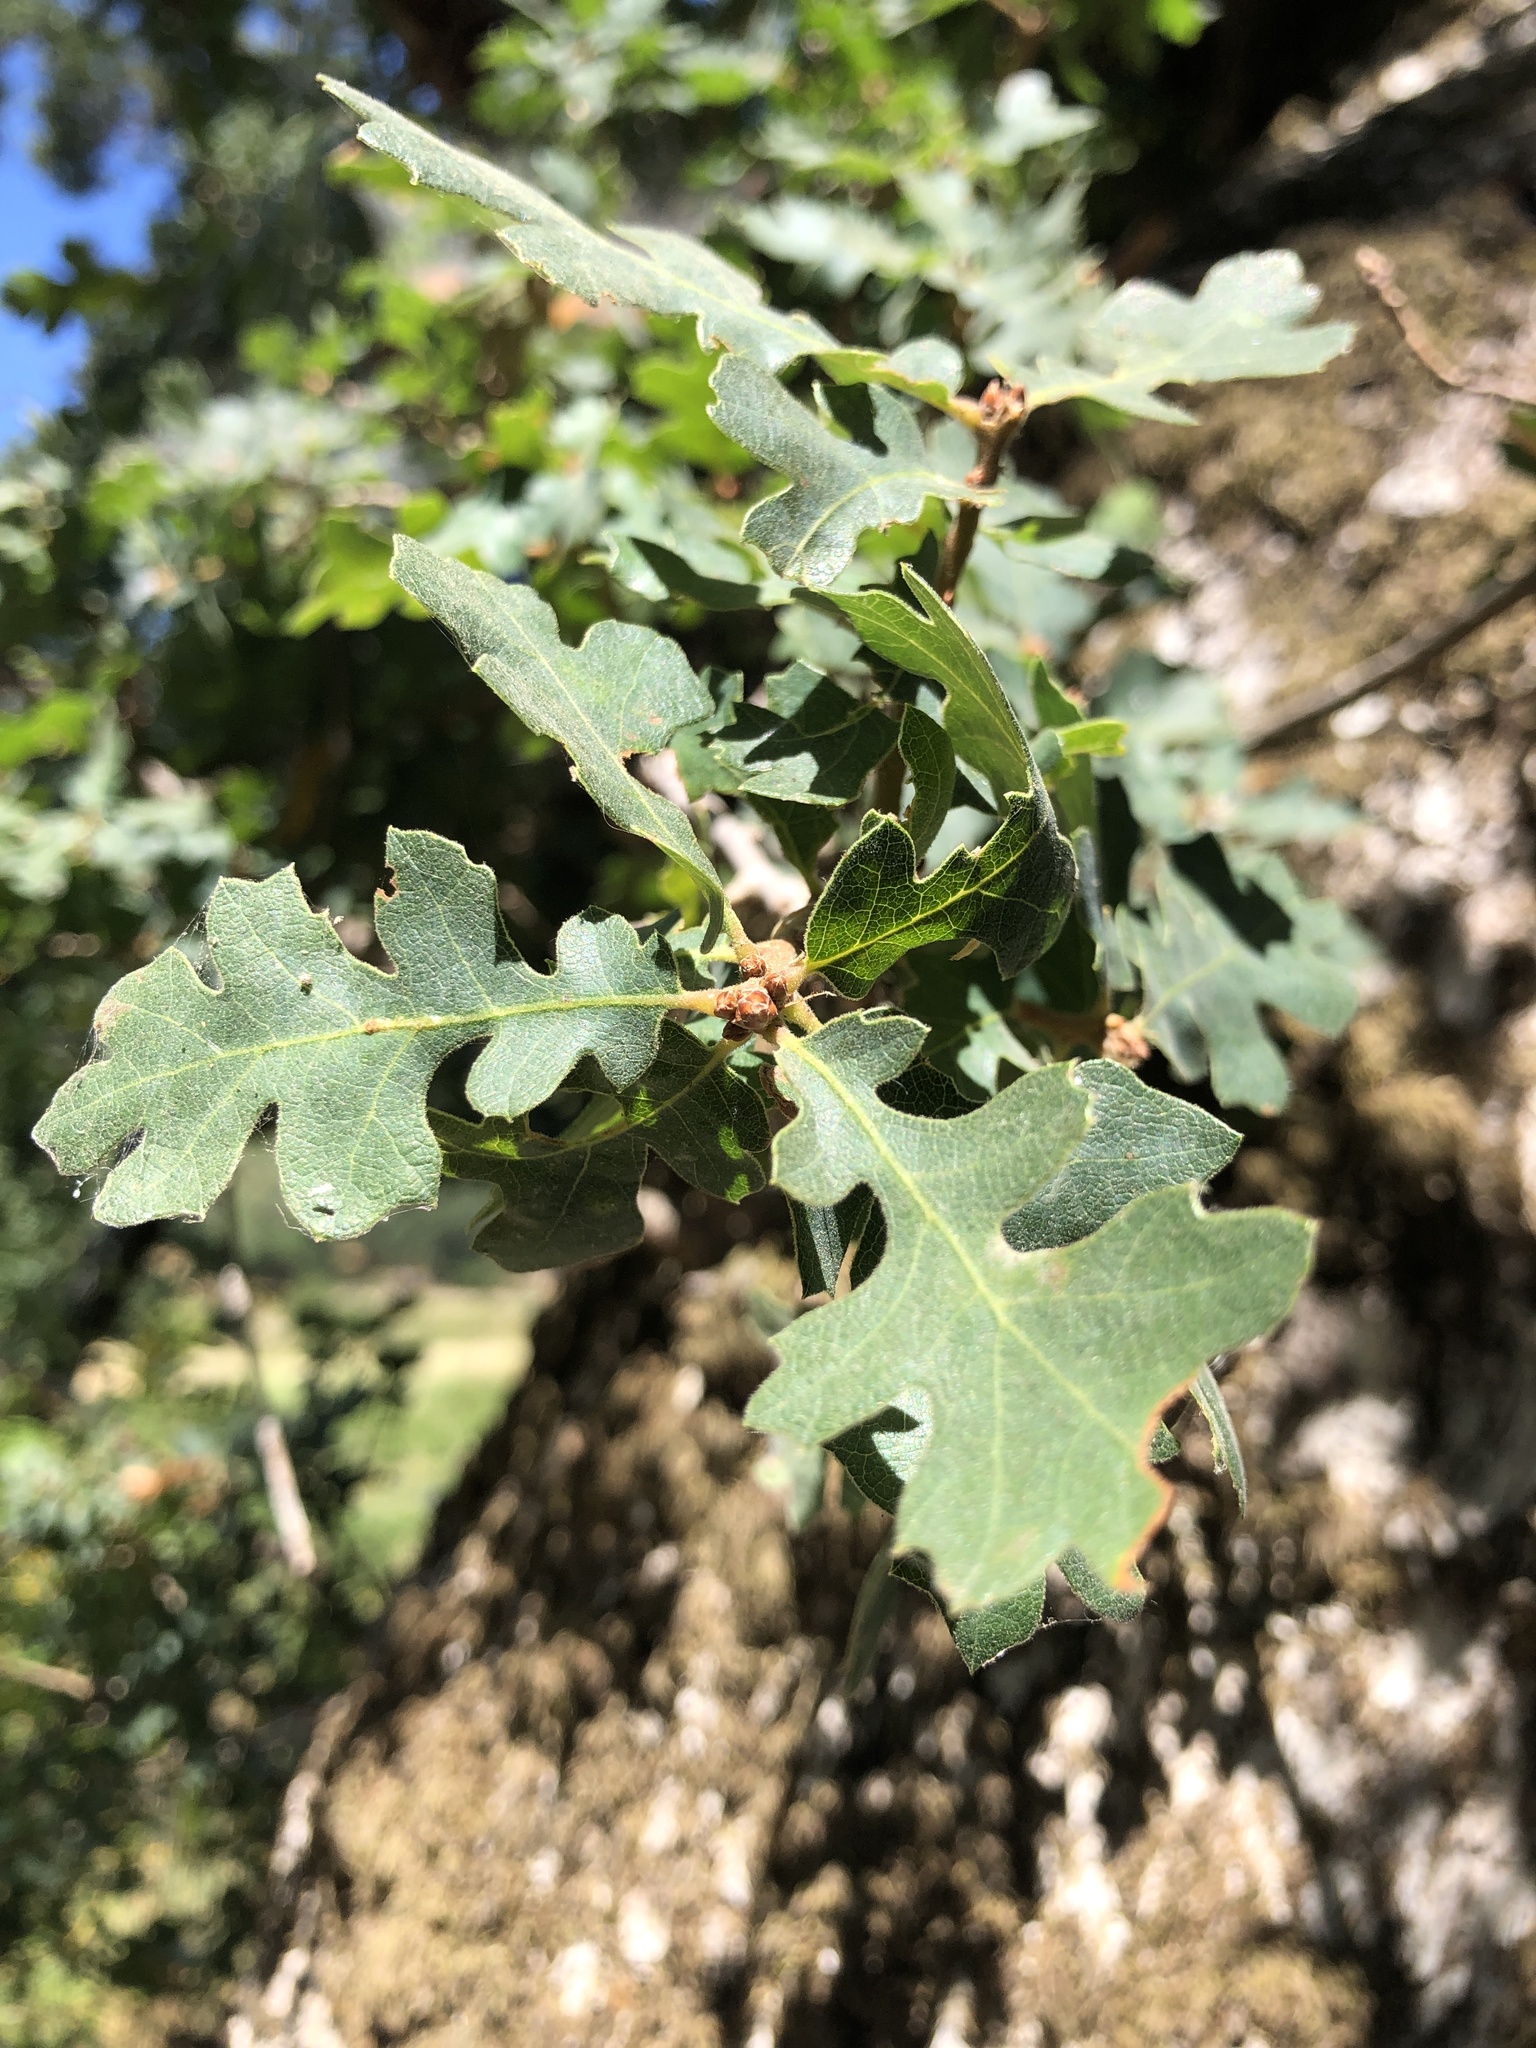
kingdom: Animalia
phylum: Arthropoda
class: Insecta
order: Hymenoptera
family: Cynipidae
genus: Andricus
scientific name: Andricus
